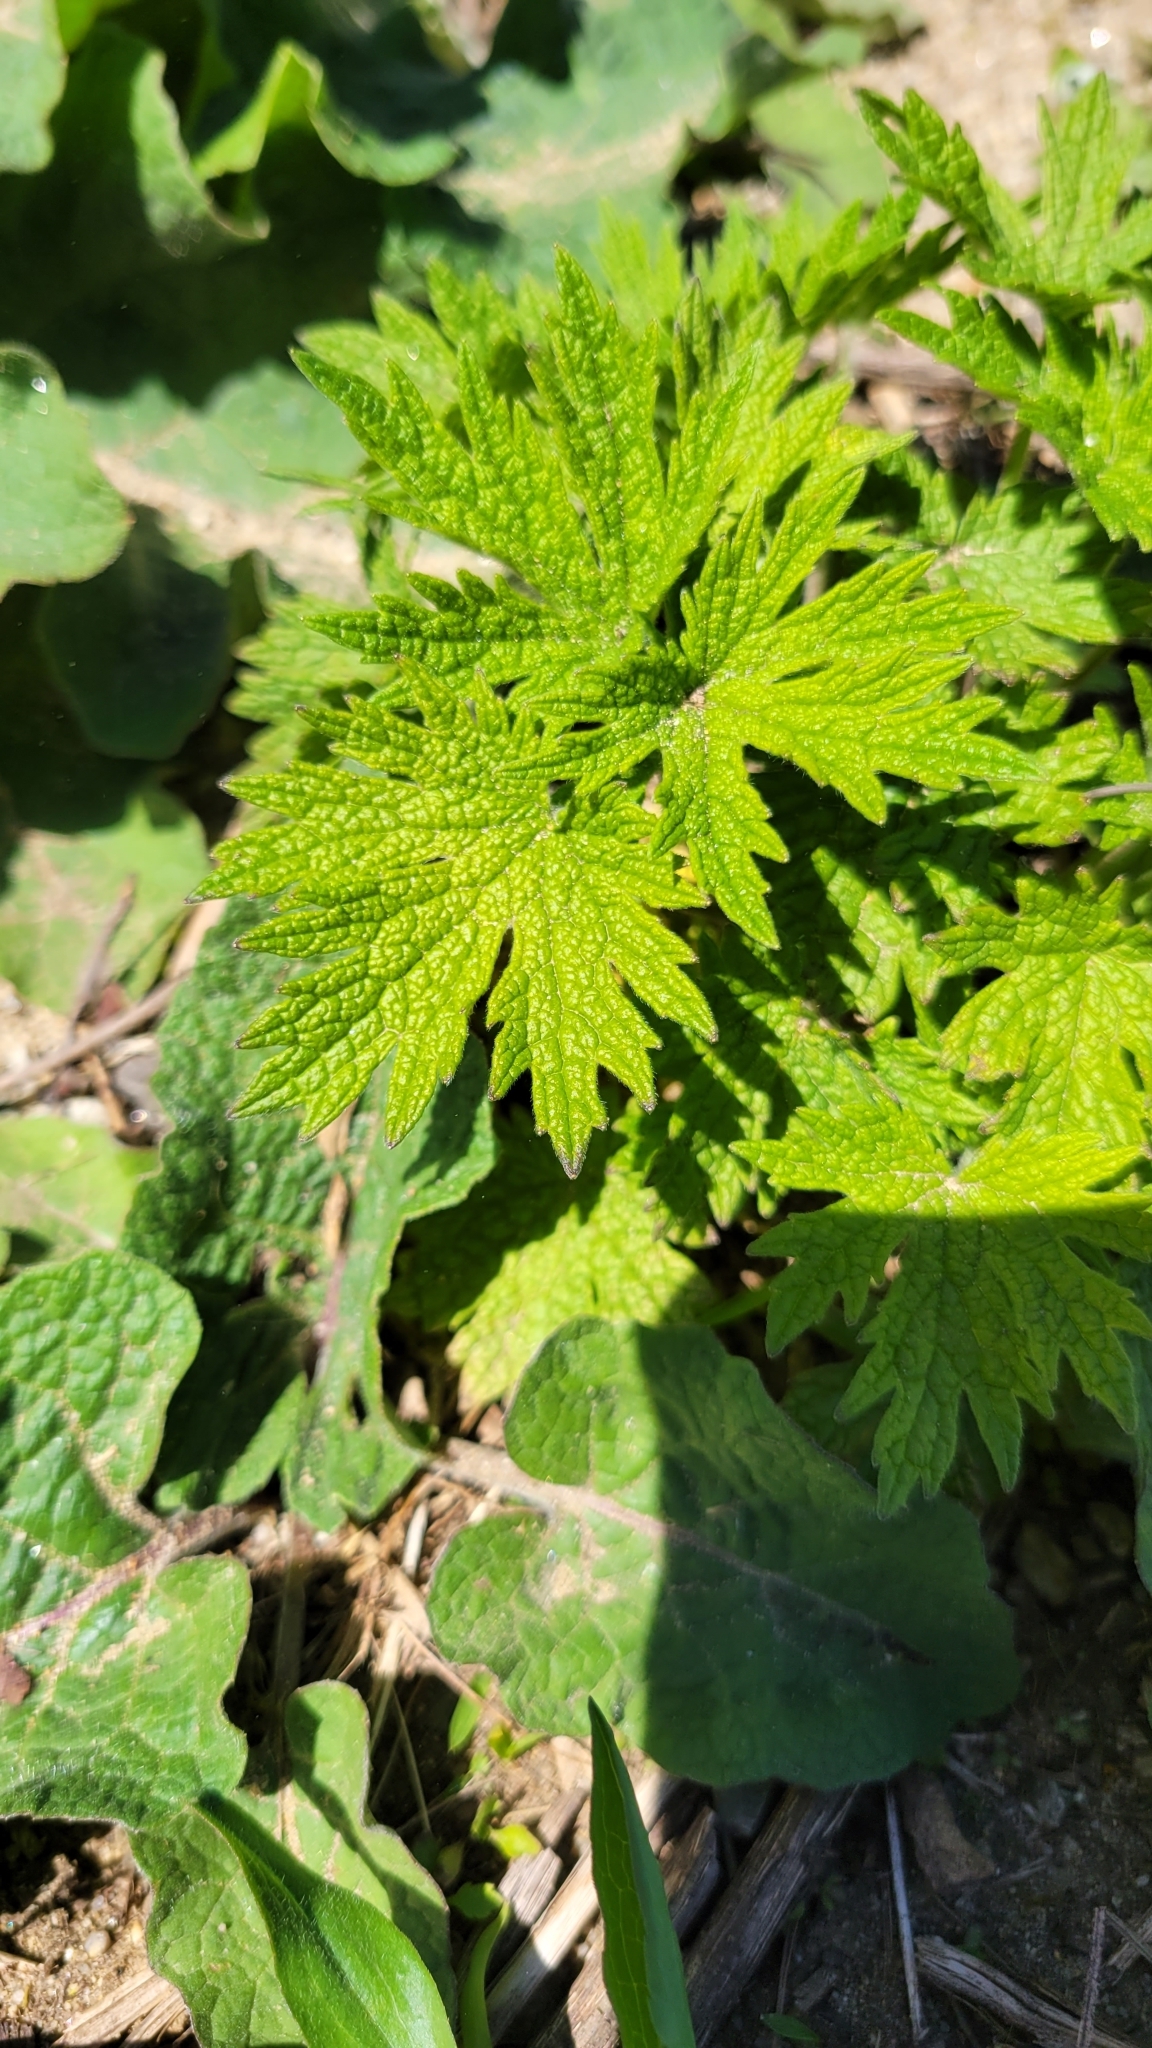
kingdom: Plantae
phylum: Tracheophyta
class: Magnoliopsida
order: Lamiales
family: Lamiaceae
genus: Leonurus
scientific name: Leonurus cardiaca
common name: Motherwort
